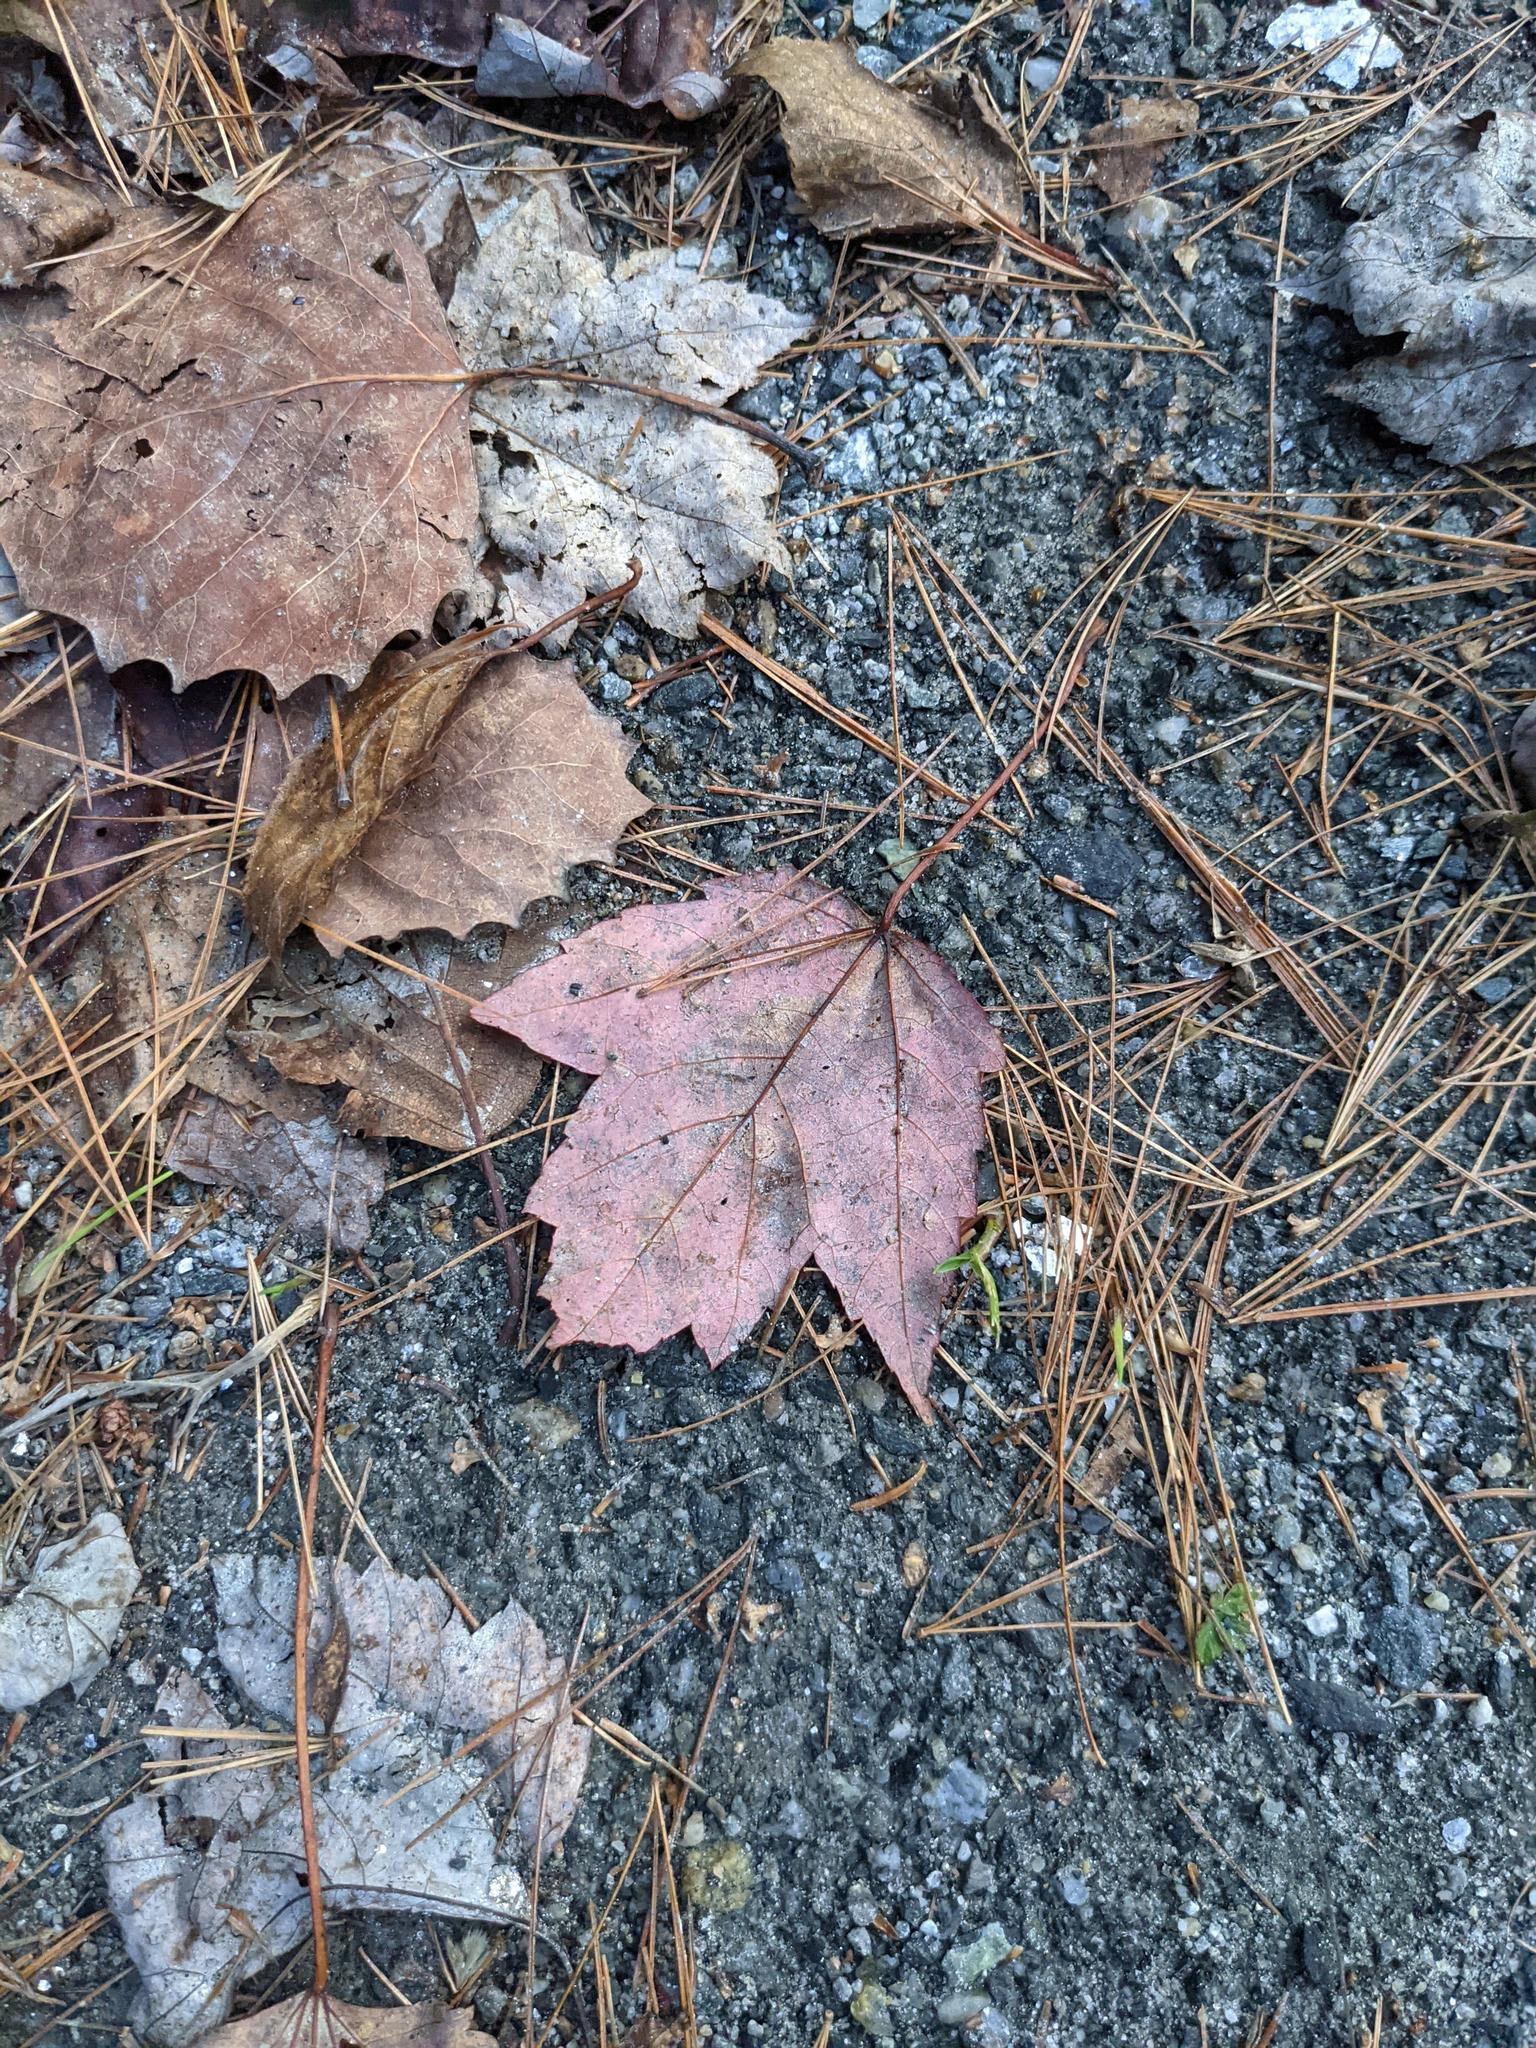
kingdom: Plantae
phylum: Tracheophyta
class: Magnoliopsida
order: Sapindales
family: Sapindaceae
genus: Acer
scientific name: Acer rubrum
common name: Red maple
